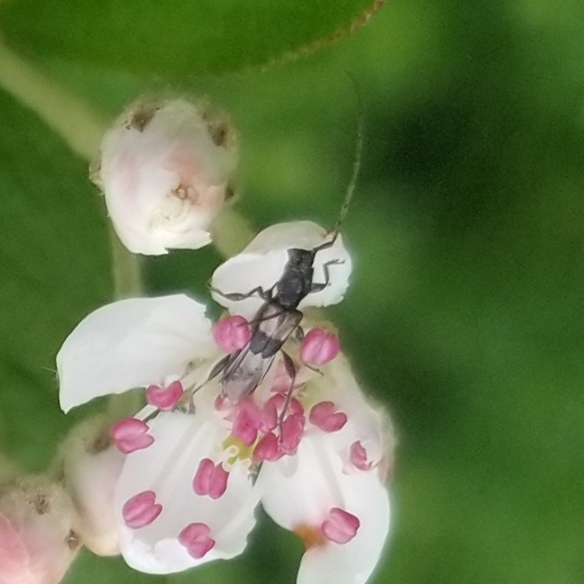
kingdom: Animalia
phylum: Arthropoda
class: Insecta
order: Coleoptera
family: Cerambycidae
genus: Molorchus
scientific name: Molorchus bimaculatus
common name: Bimaculate longhorn beetle
